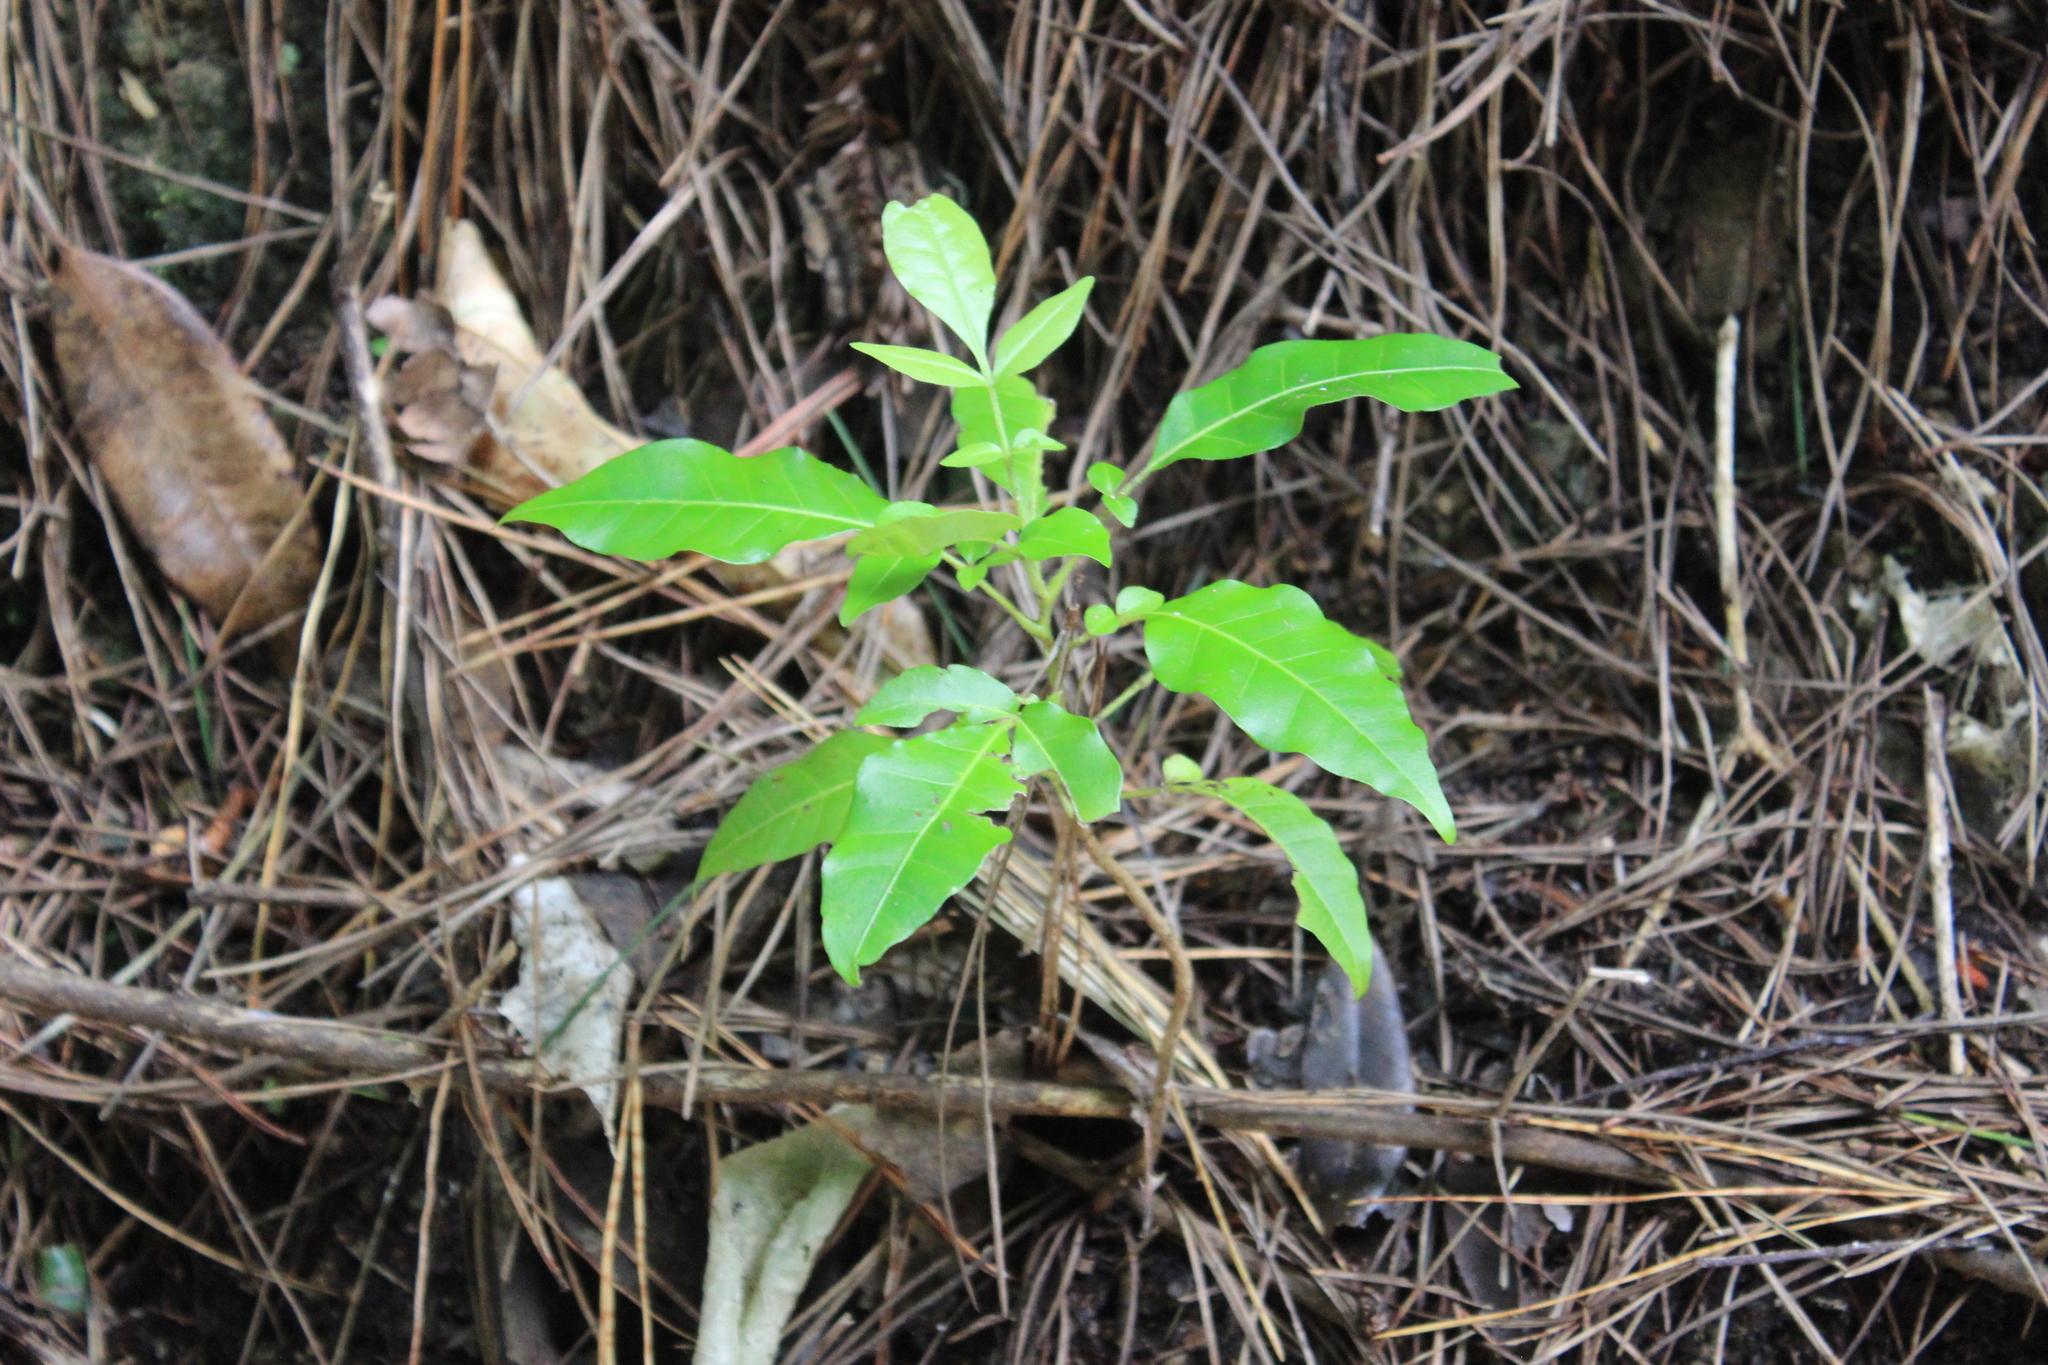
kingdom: Plantae
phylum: Tracheophyta
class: Magnoliopsida
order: Sapindales
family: Meliaceae
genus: Didymocheton
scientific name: Didymocheton spectabilis
